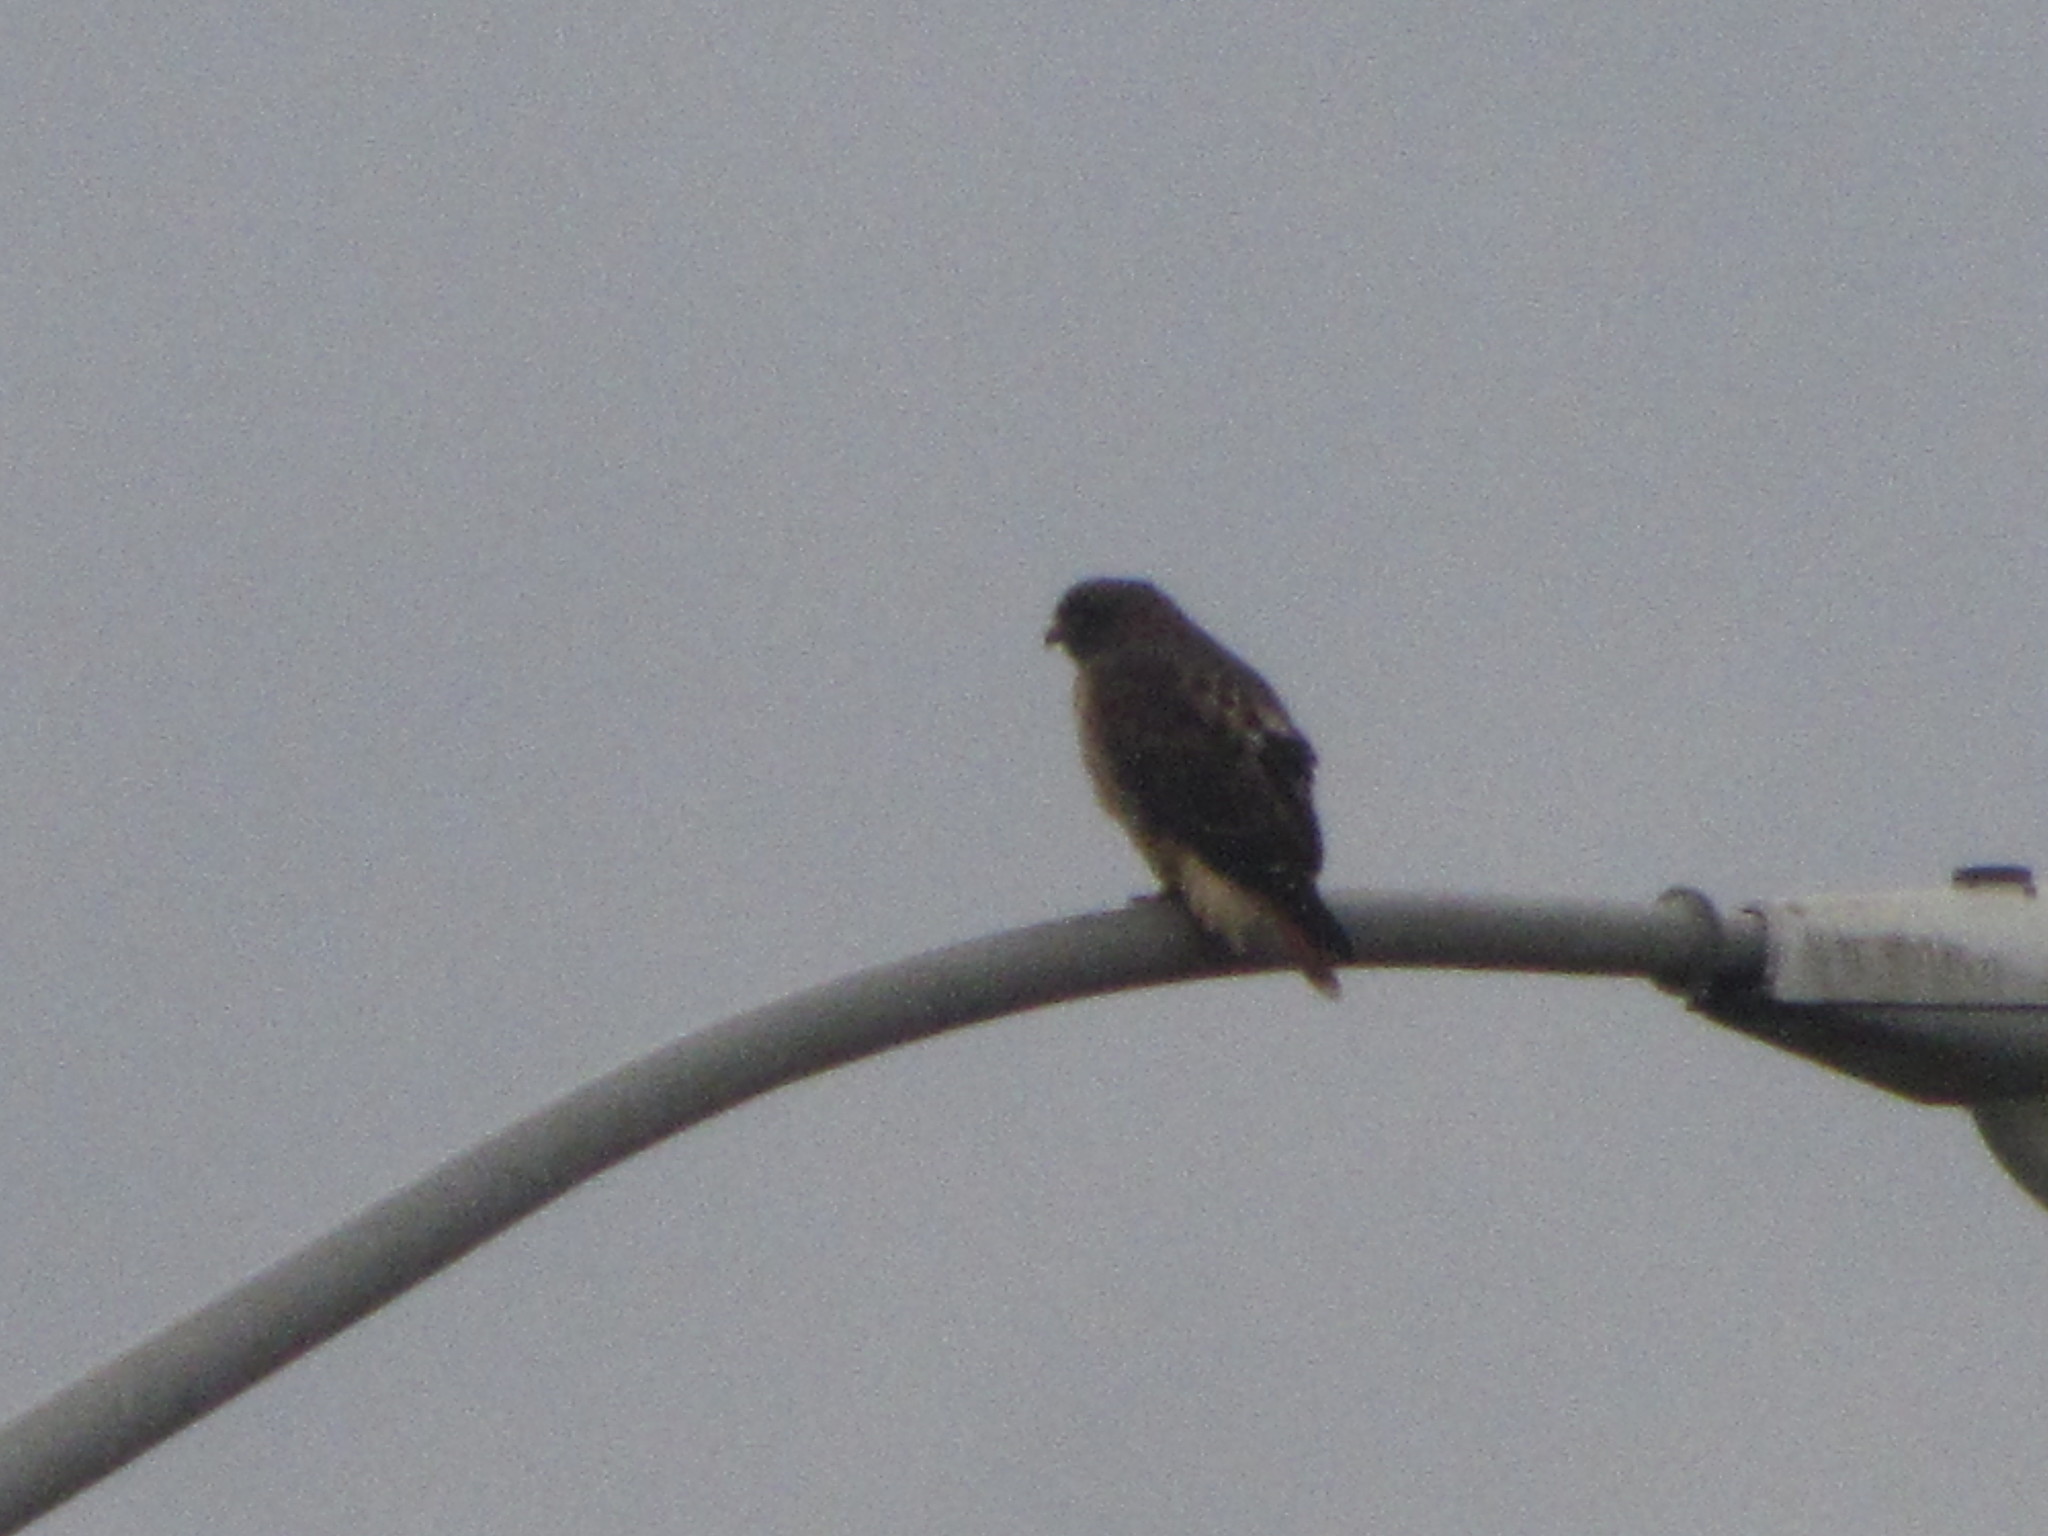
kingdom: Animalia
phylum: Chordata
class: Aves
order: Accipitriformes
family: Accipitridae
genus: Buteo
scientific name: Buteo jamaicensis
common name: Red-tailed hawk
